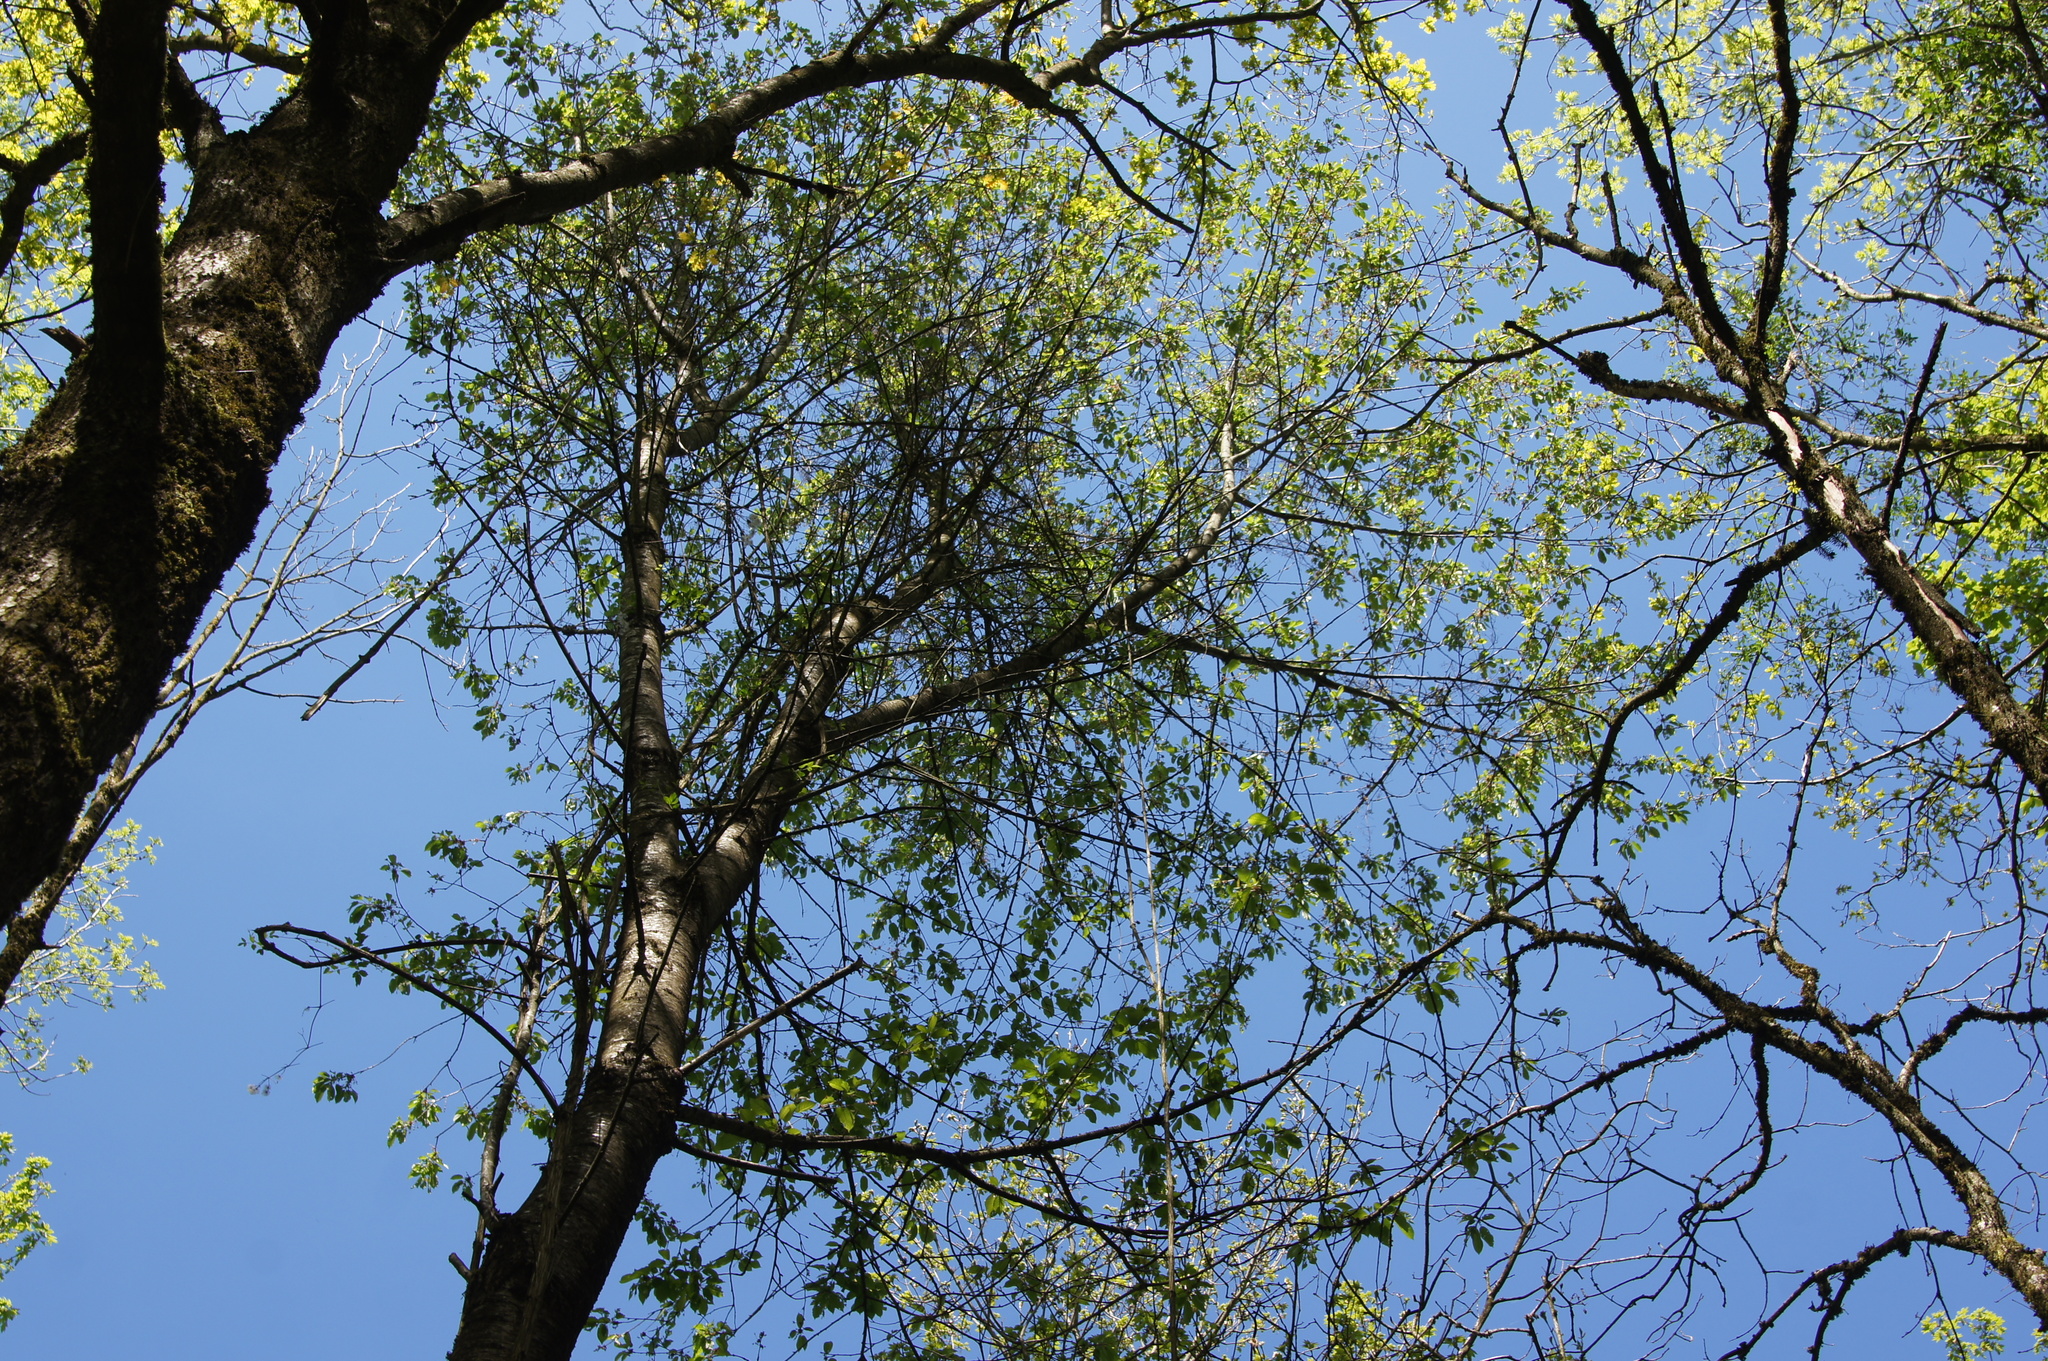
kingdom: Plantae
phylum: Tracheophyta
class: Magnoliopsida
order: Rosales
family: Rosaceae
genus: Prunus
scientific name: Prunus avium
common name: Sweet cherry
